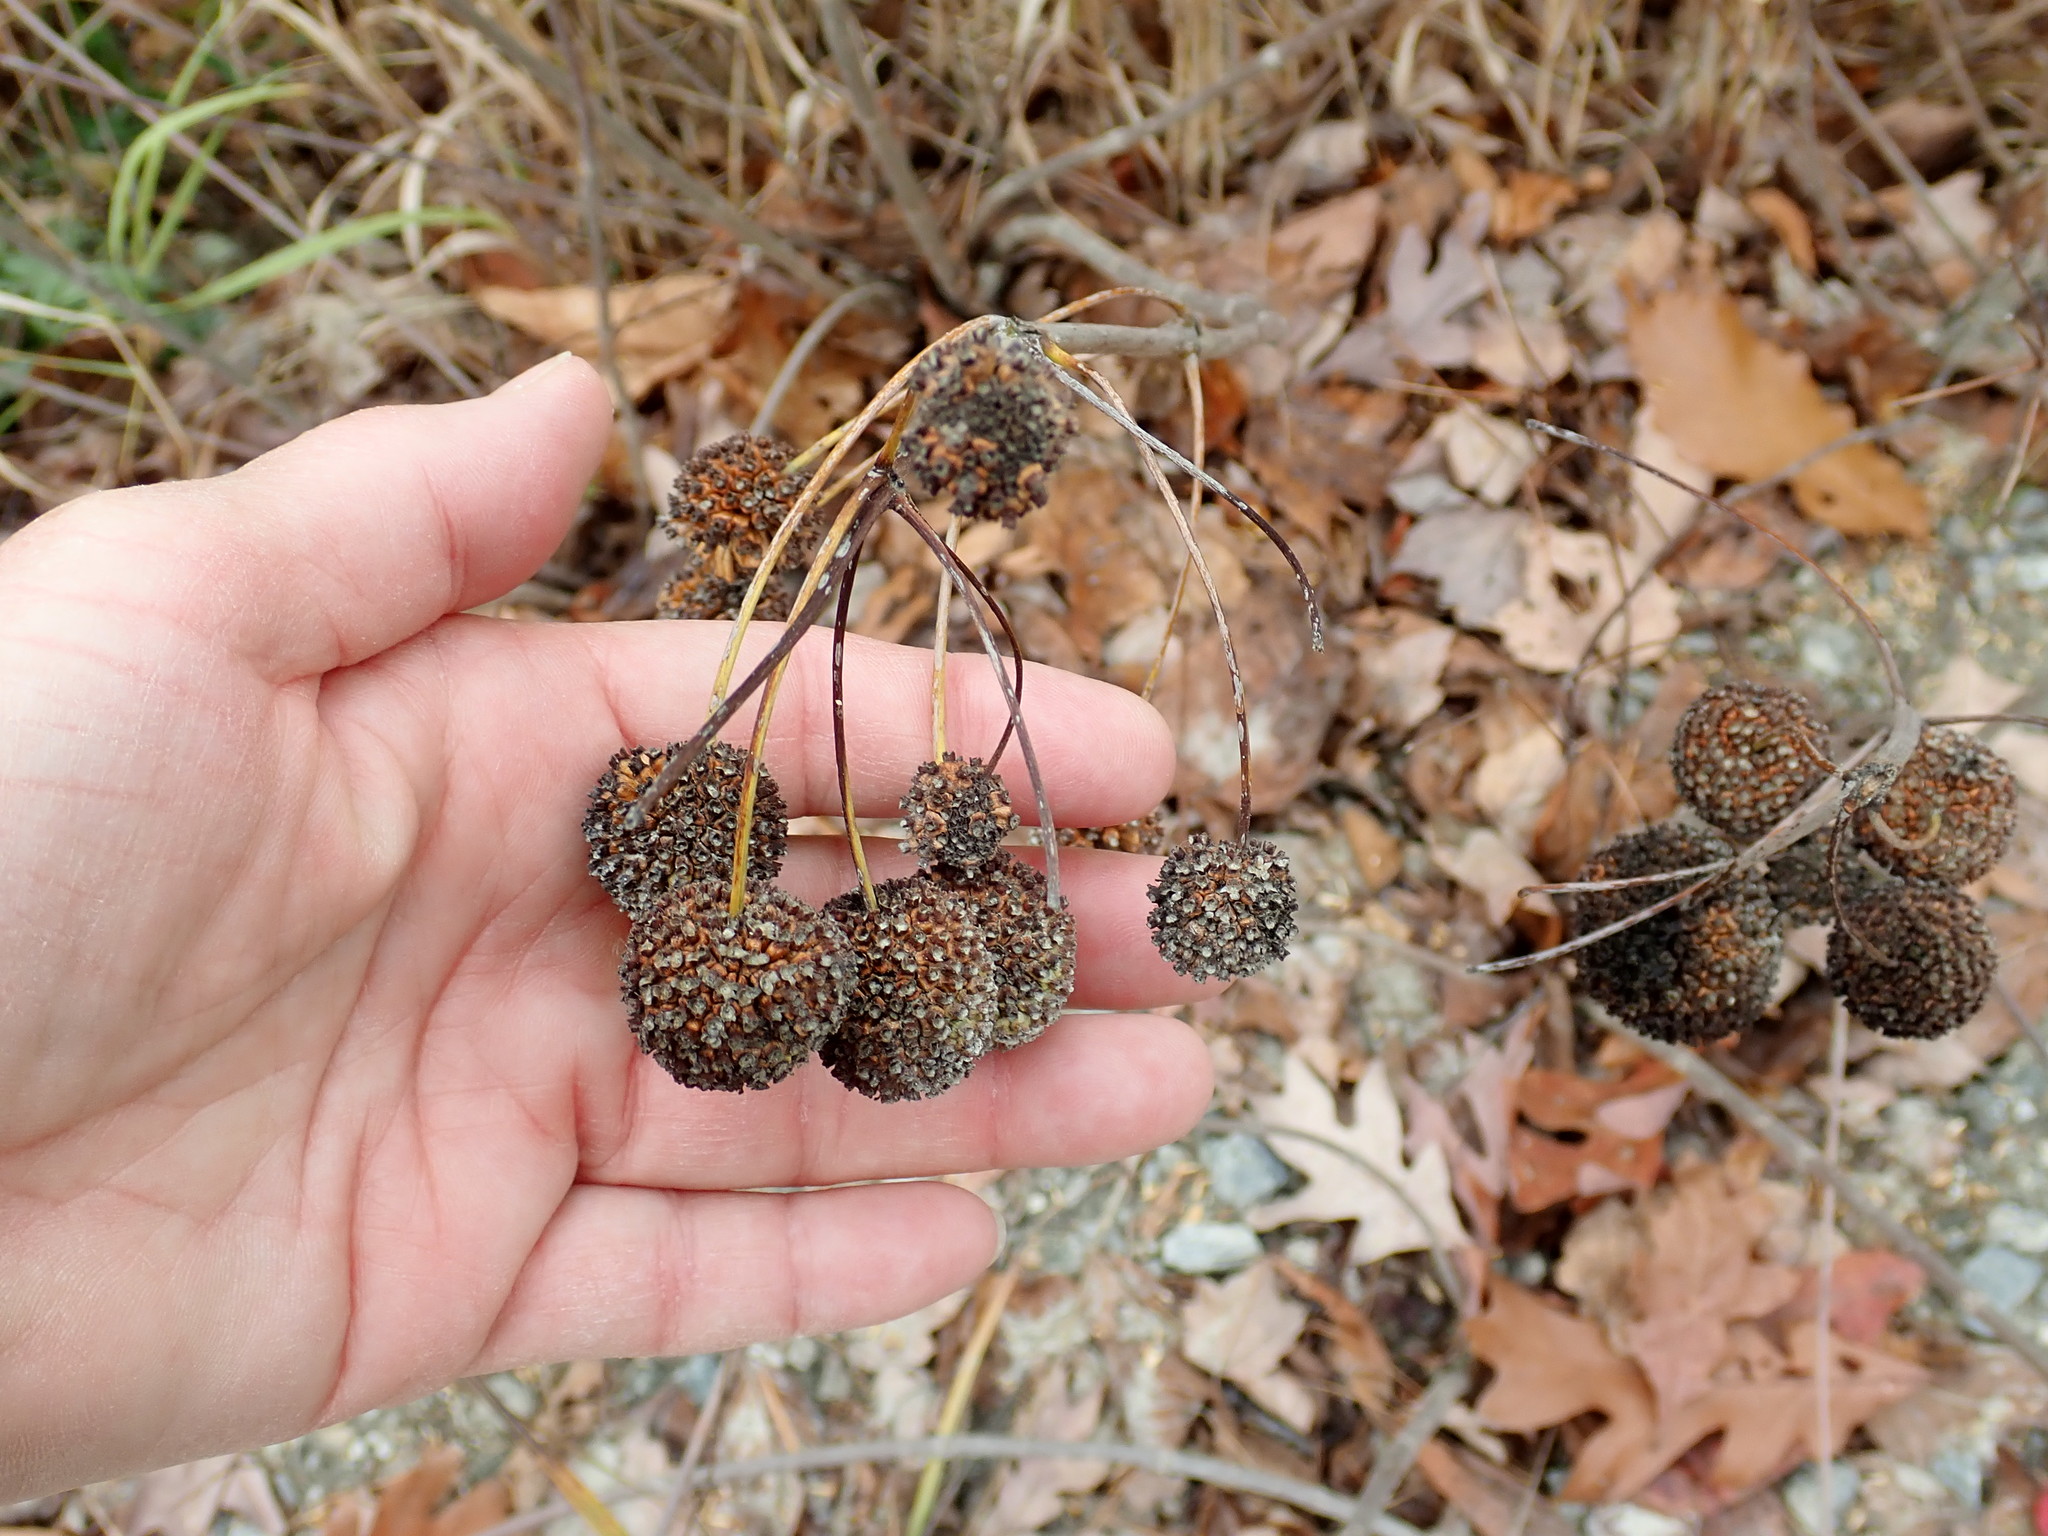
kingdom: Plantae
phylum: Tracheophyta
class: Magnoliopsida
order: Gentianales
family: Rubiaceae
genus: Cephalanthus
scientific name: Cephalanthus occidentalis
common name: Button-willow
